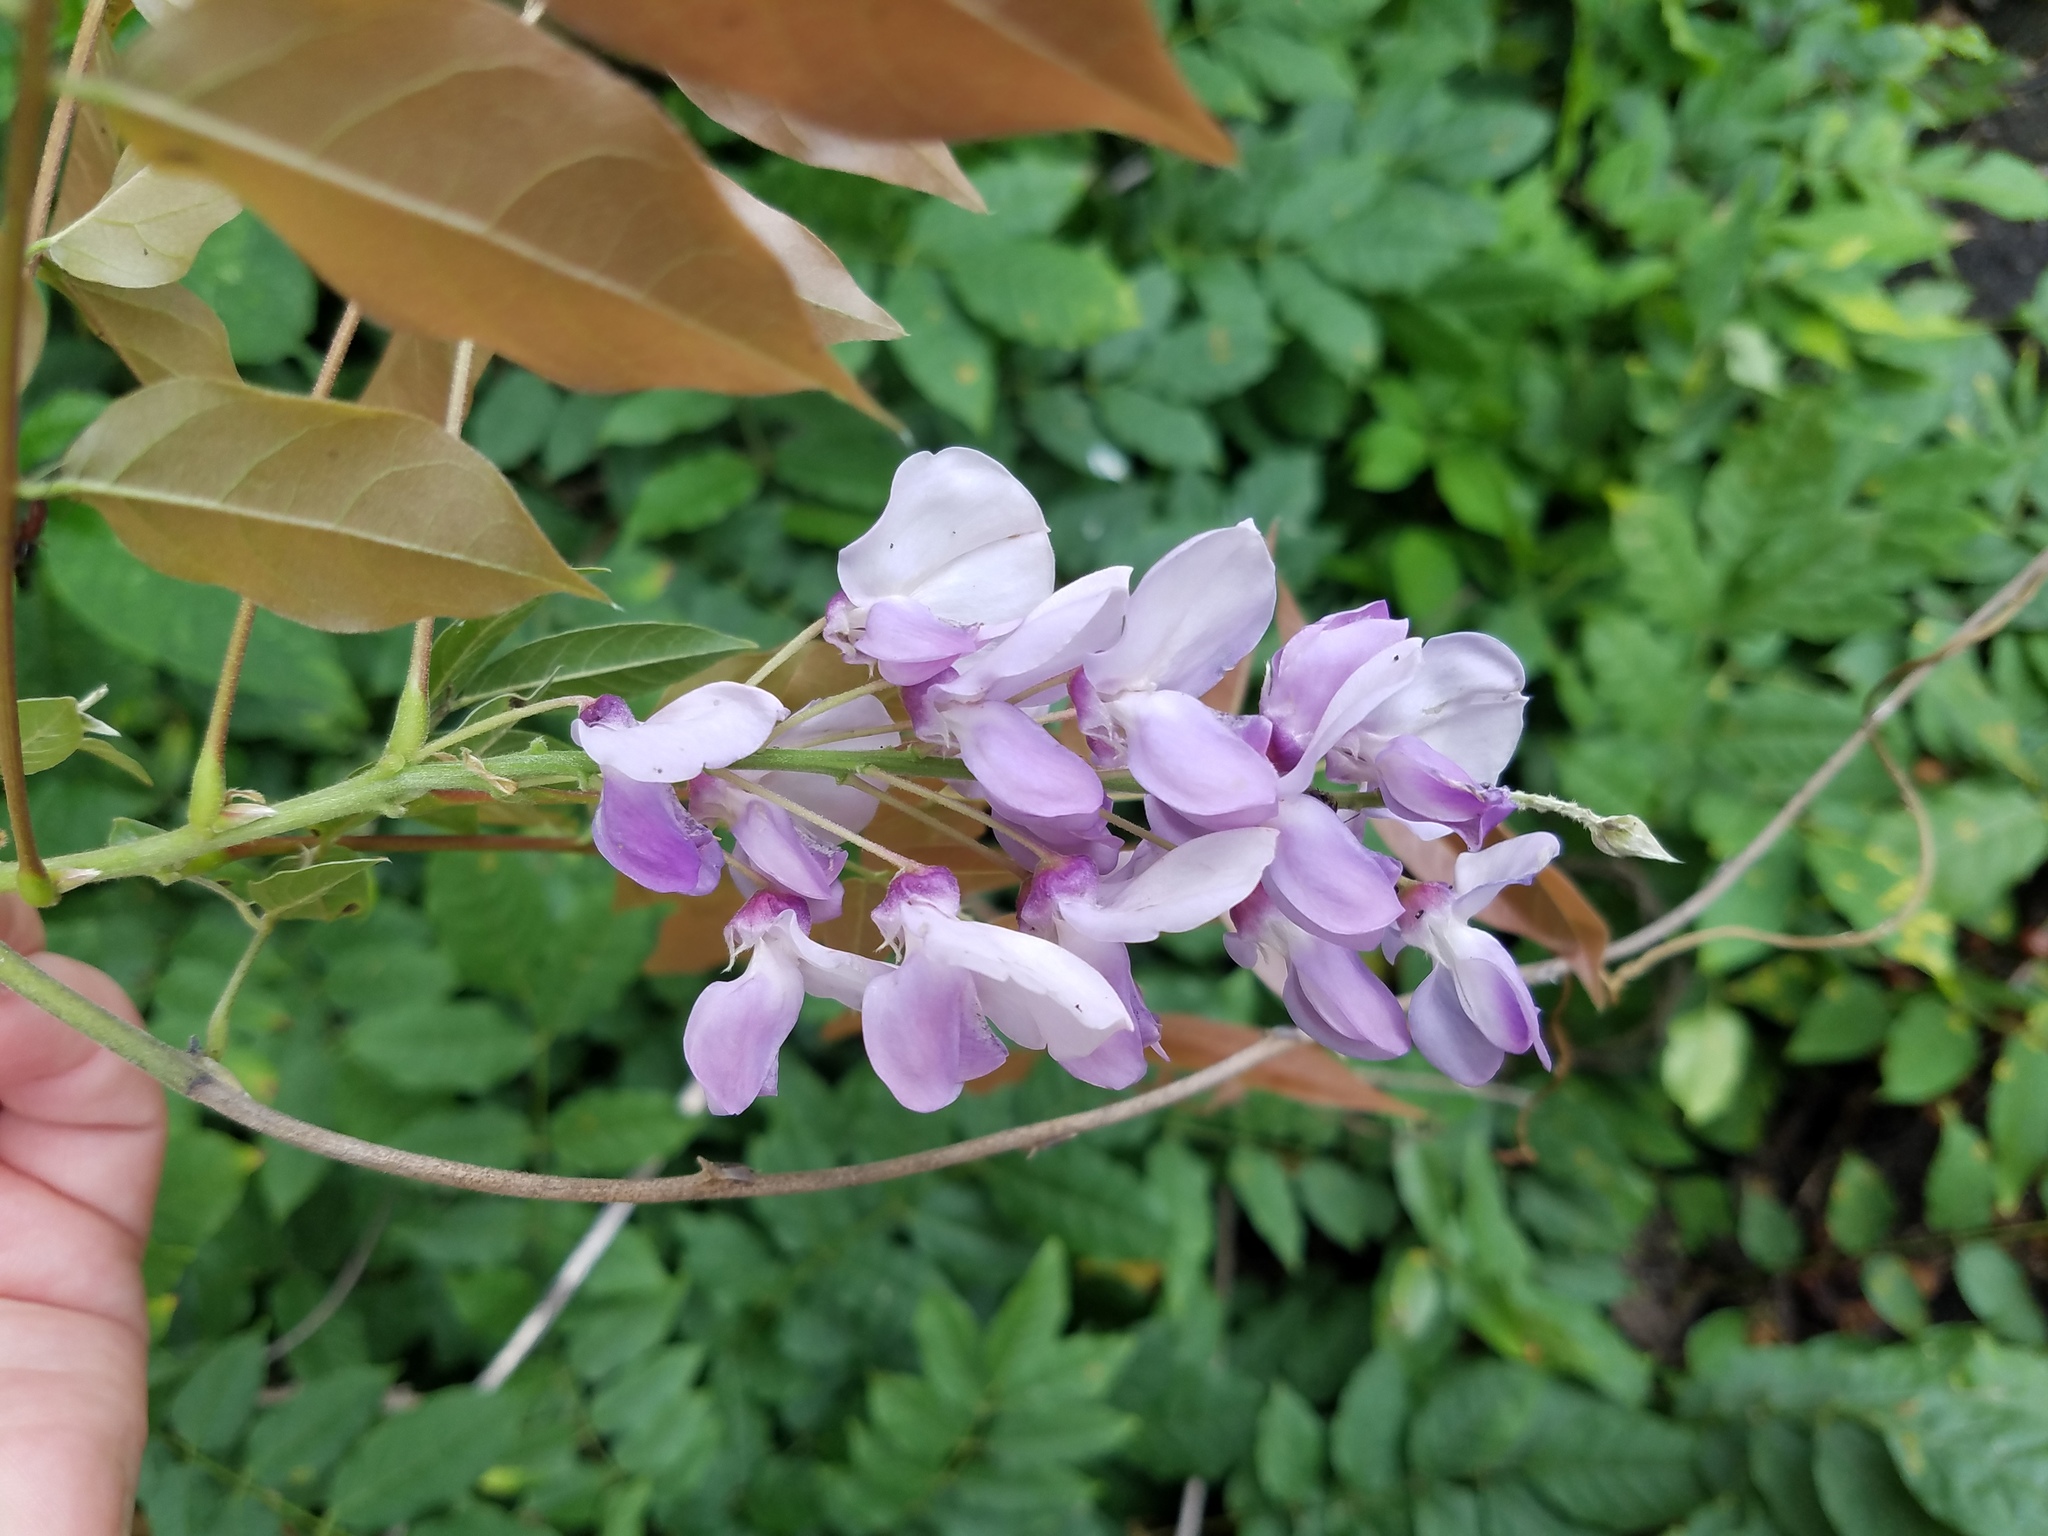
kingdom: Plantae
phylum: Tracheophyta
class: Magnoliopsida
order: Fabales
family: Fabaceae
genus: Wisteria
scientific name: Wisteria sinensis
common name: Chinese wisteria
